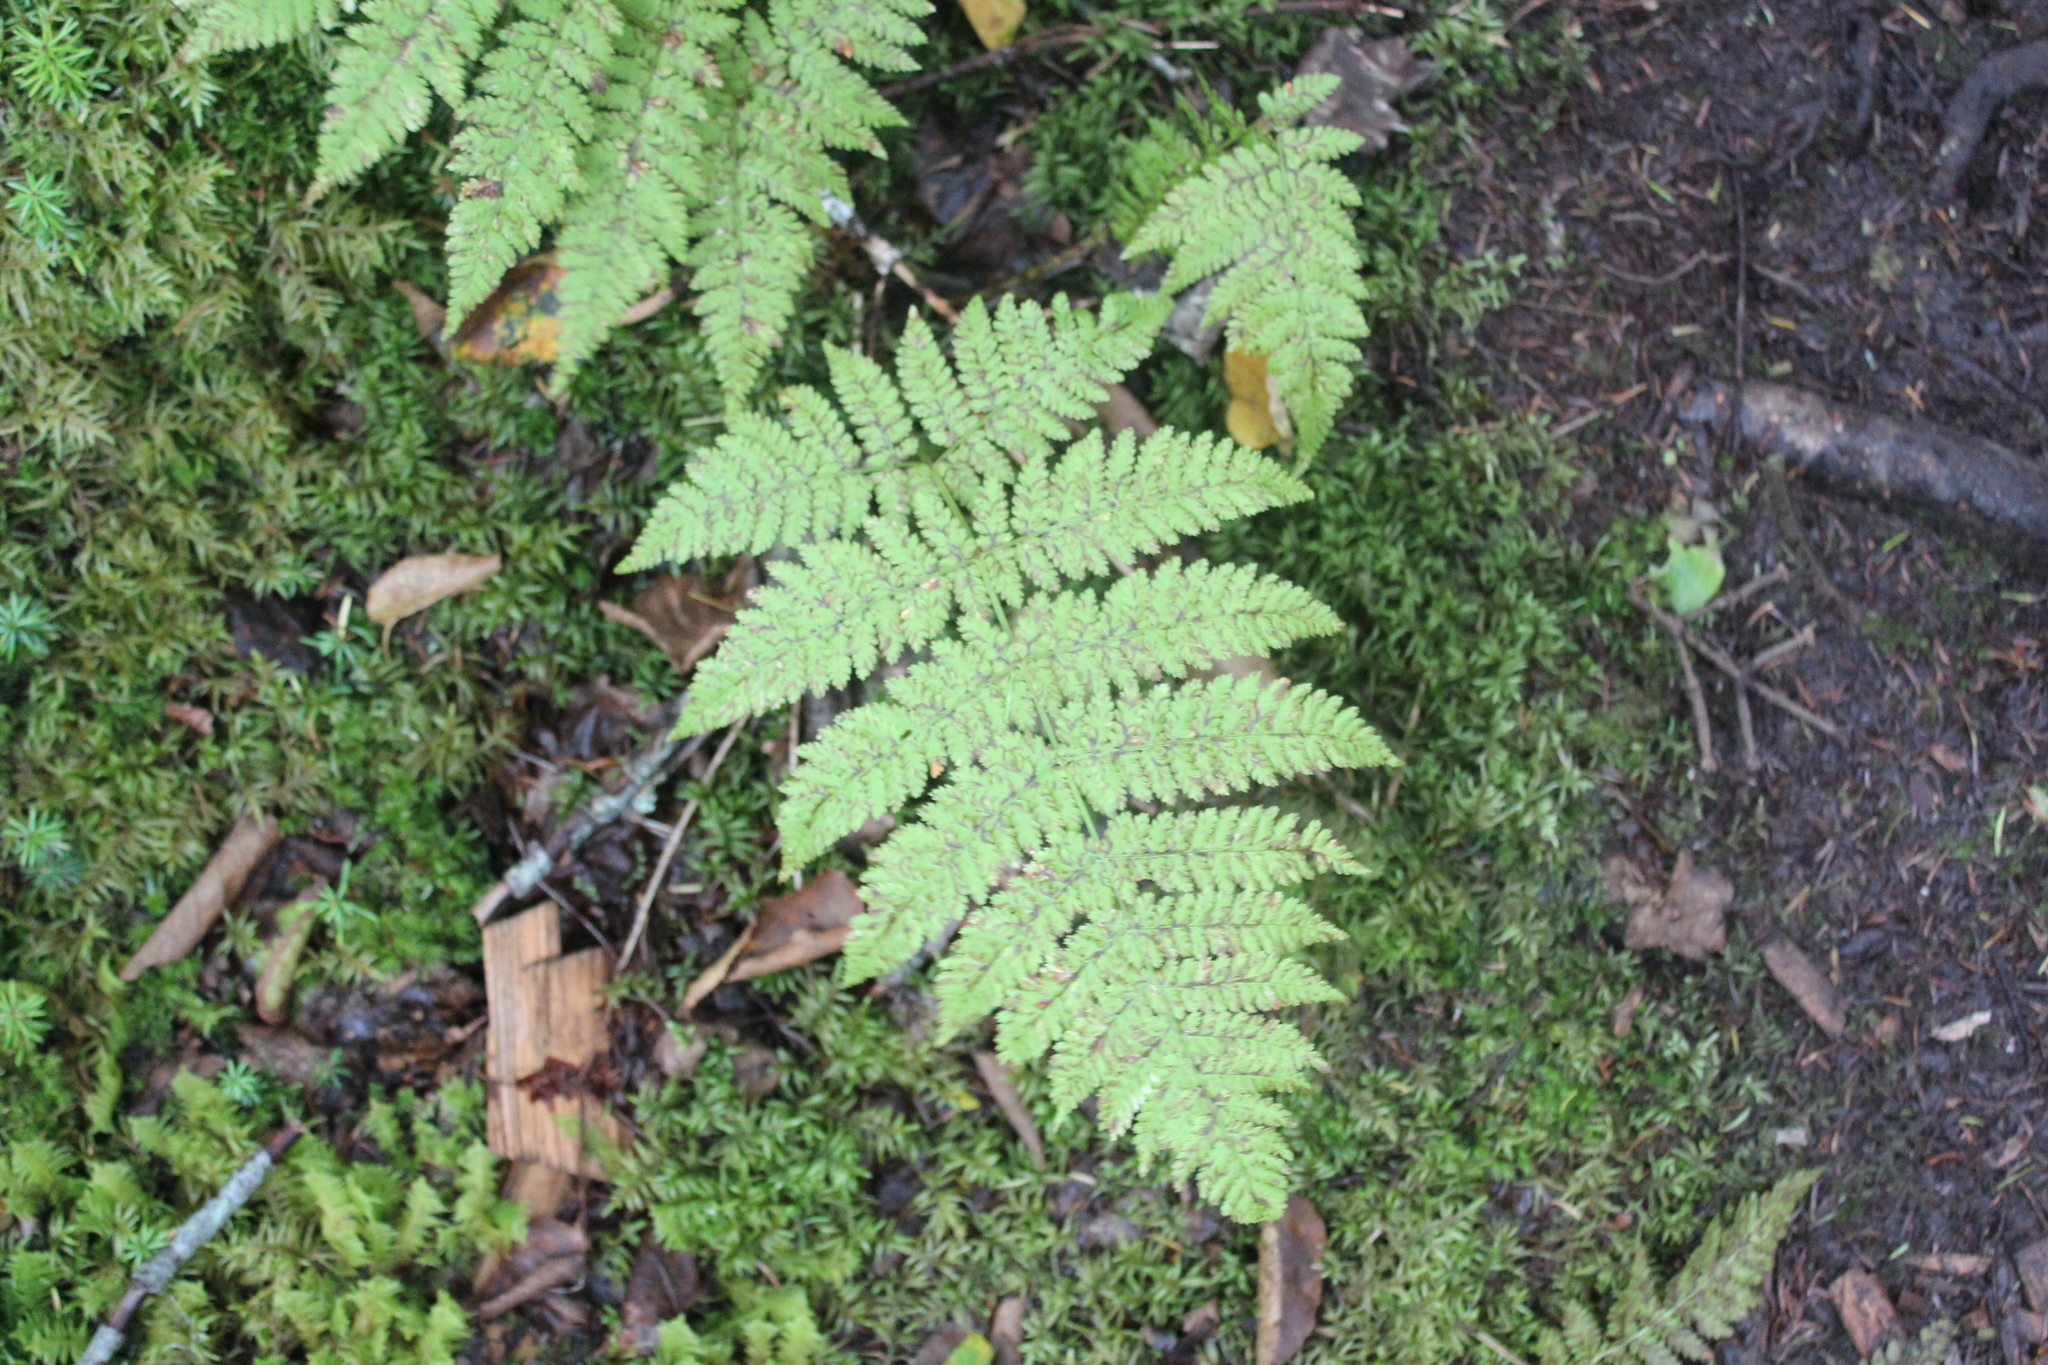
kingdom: Plantae
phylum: Tracheophyta
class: Polypodiopsida
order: Polypodiales
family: Dryopteridaceae
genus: Dryopteris
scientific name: Dryopteris campyloptera
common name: Mountain wood fern
